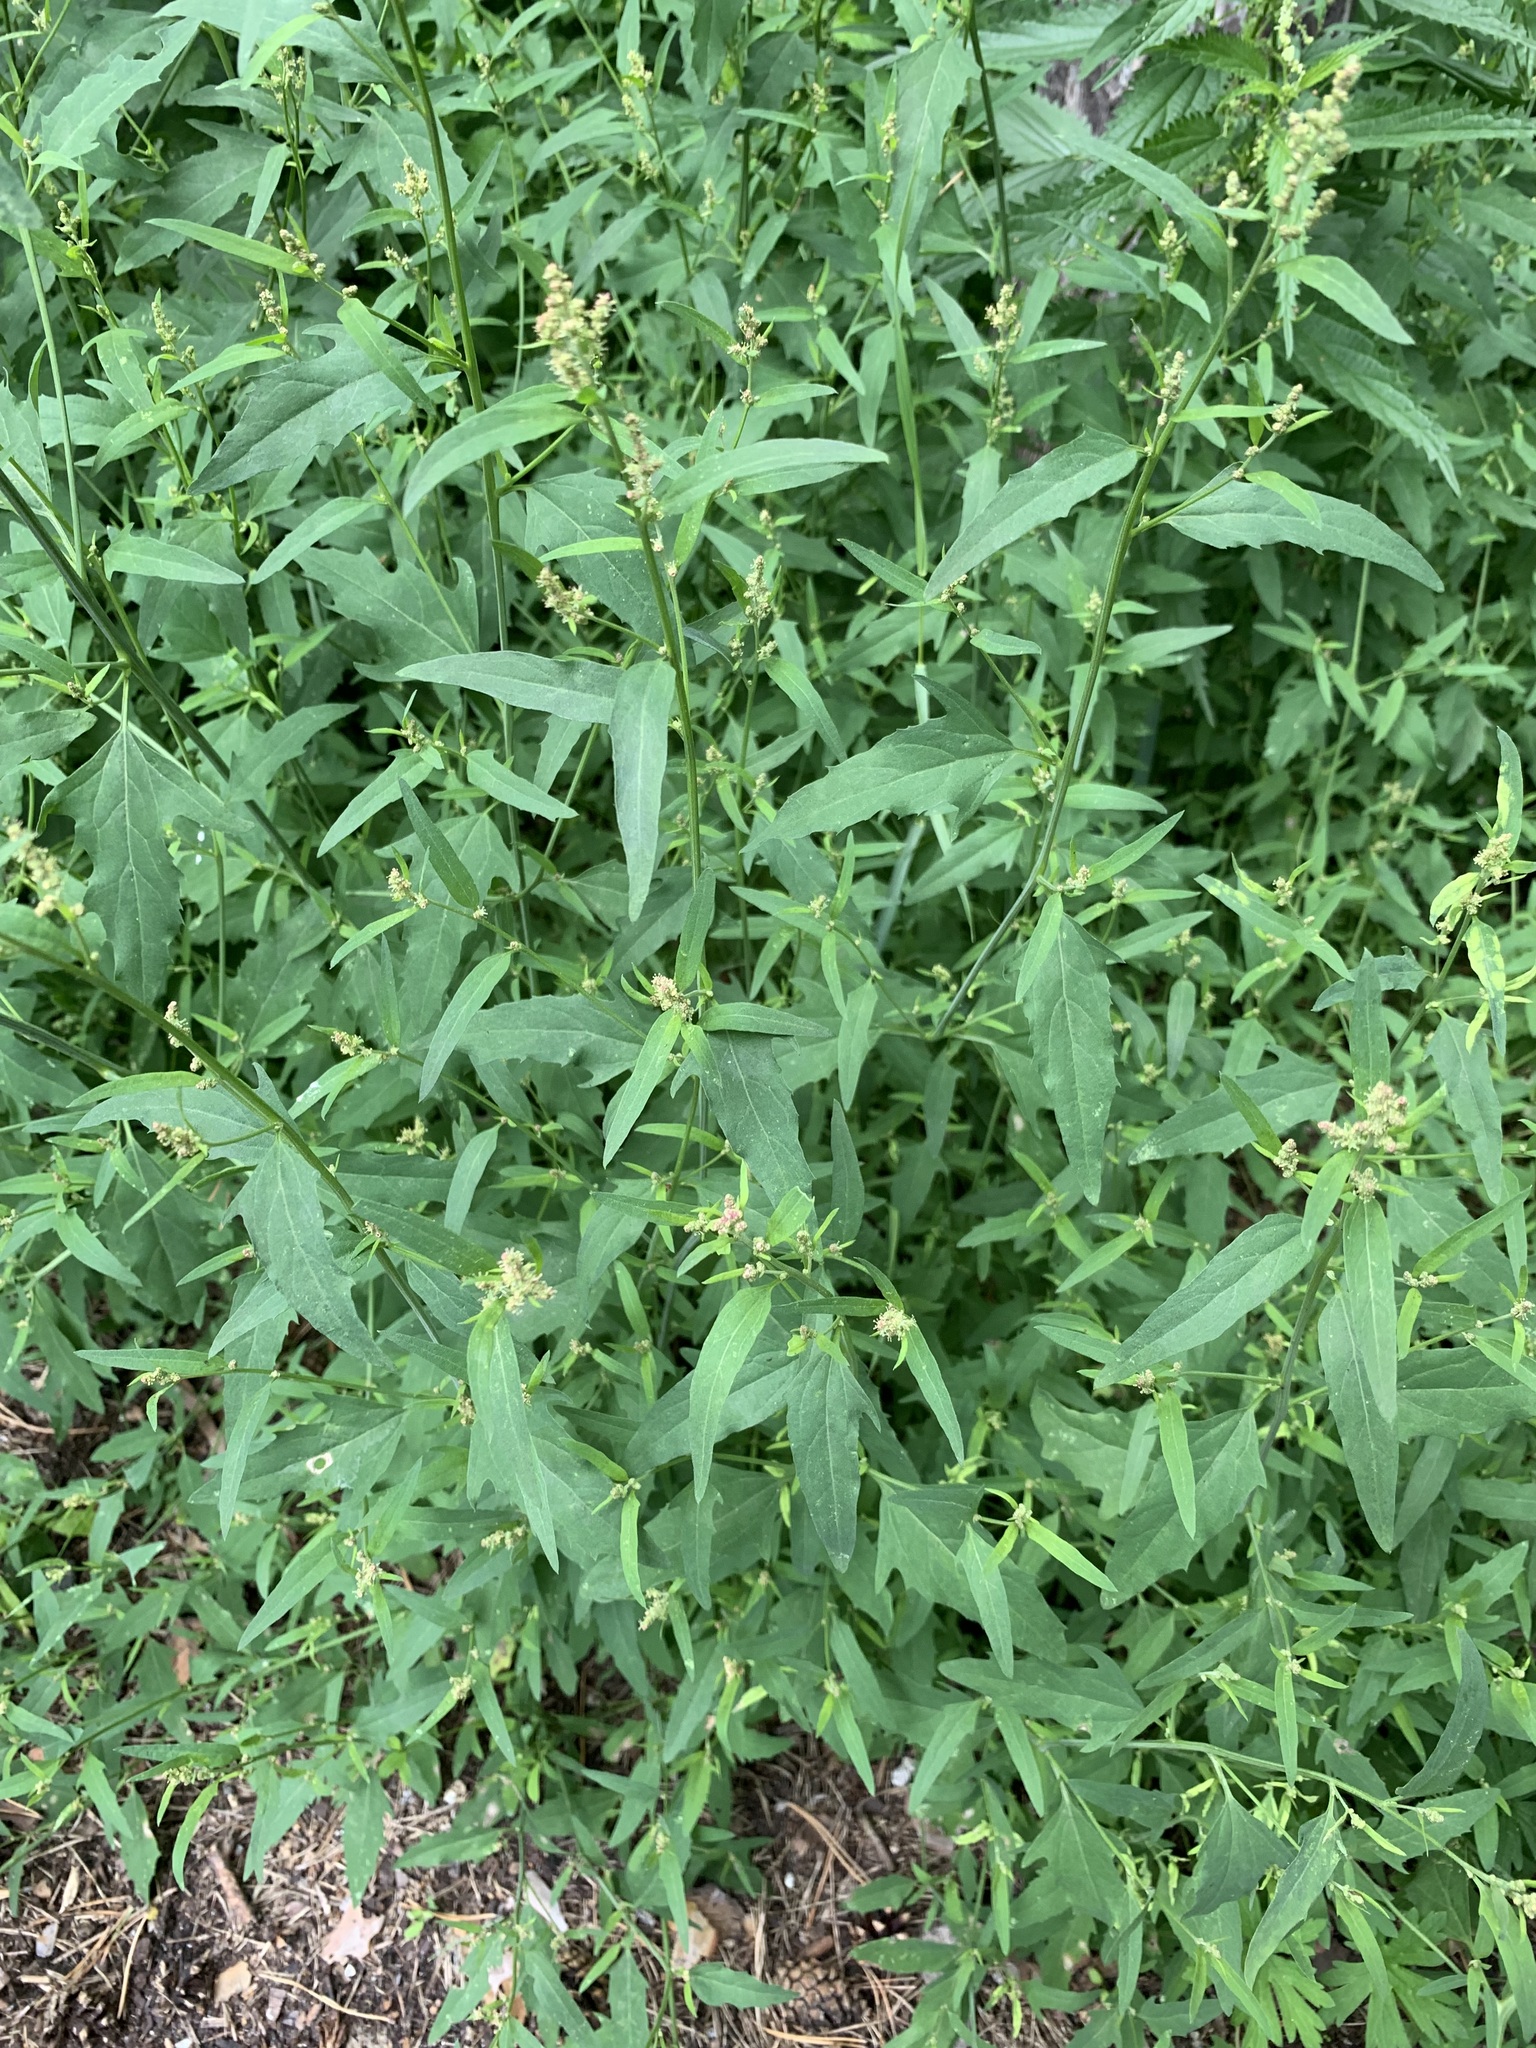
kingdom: Plantae
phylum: Tracheophyta
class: Magnoliopsida
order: Caryophyllales
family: Amaranthaceae
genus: Atriplex
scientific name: Atriplex patula
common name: Common orache
